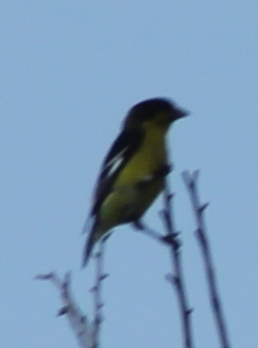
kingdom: Animalia
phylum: Chordata
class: Aves
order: Passeriformes
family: Fringillidae
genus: Spinus
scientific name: Spinus psaltria
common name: Lesser goldfinch
